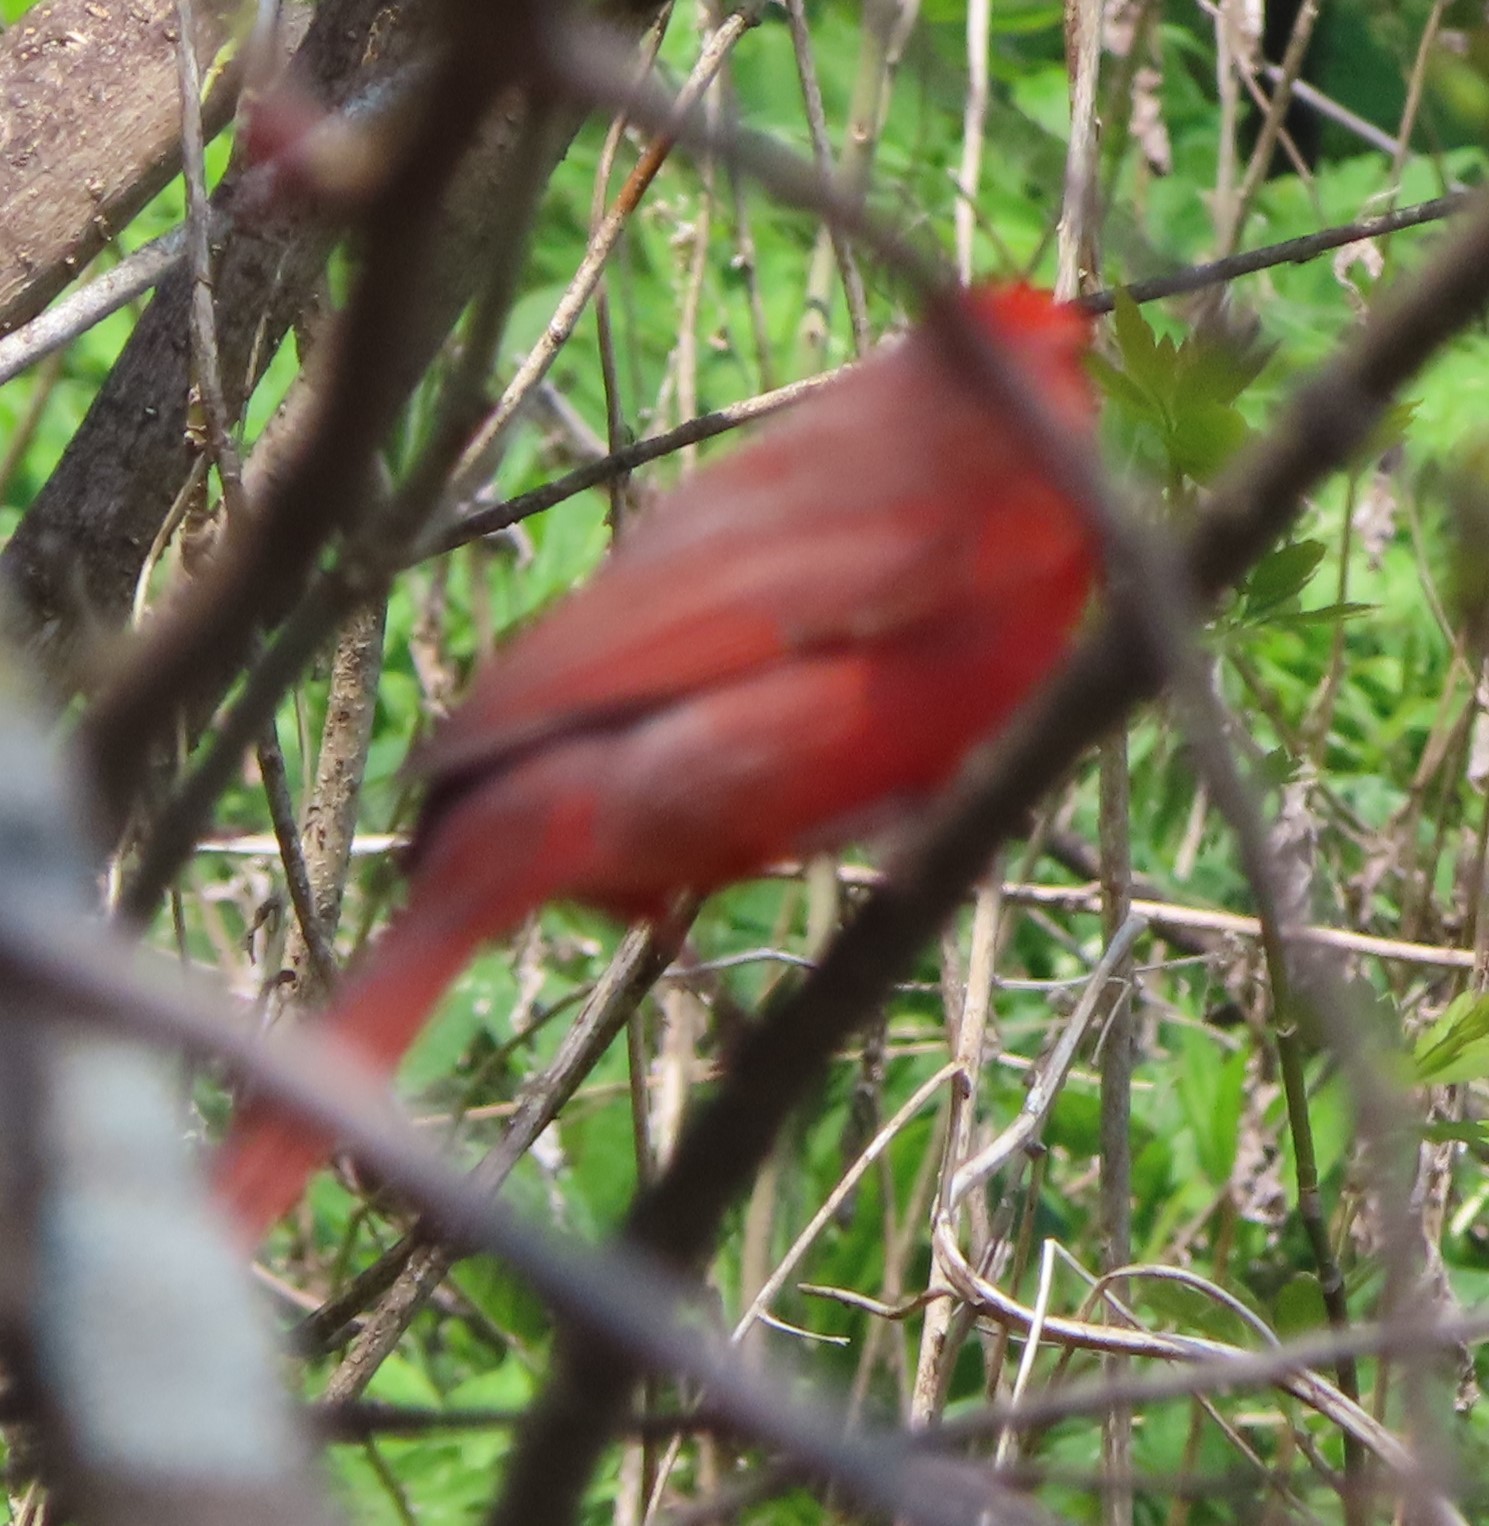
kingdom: Animalia
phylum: Chordata
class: Aves
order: Passeriformes
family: Cardinalidae
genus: Cardinalis
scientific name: Cardinalis cardinalis
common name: Northern cardinal
